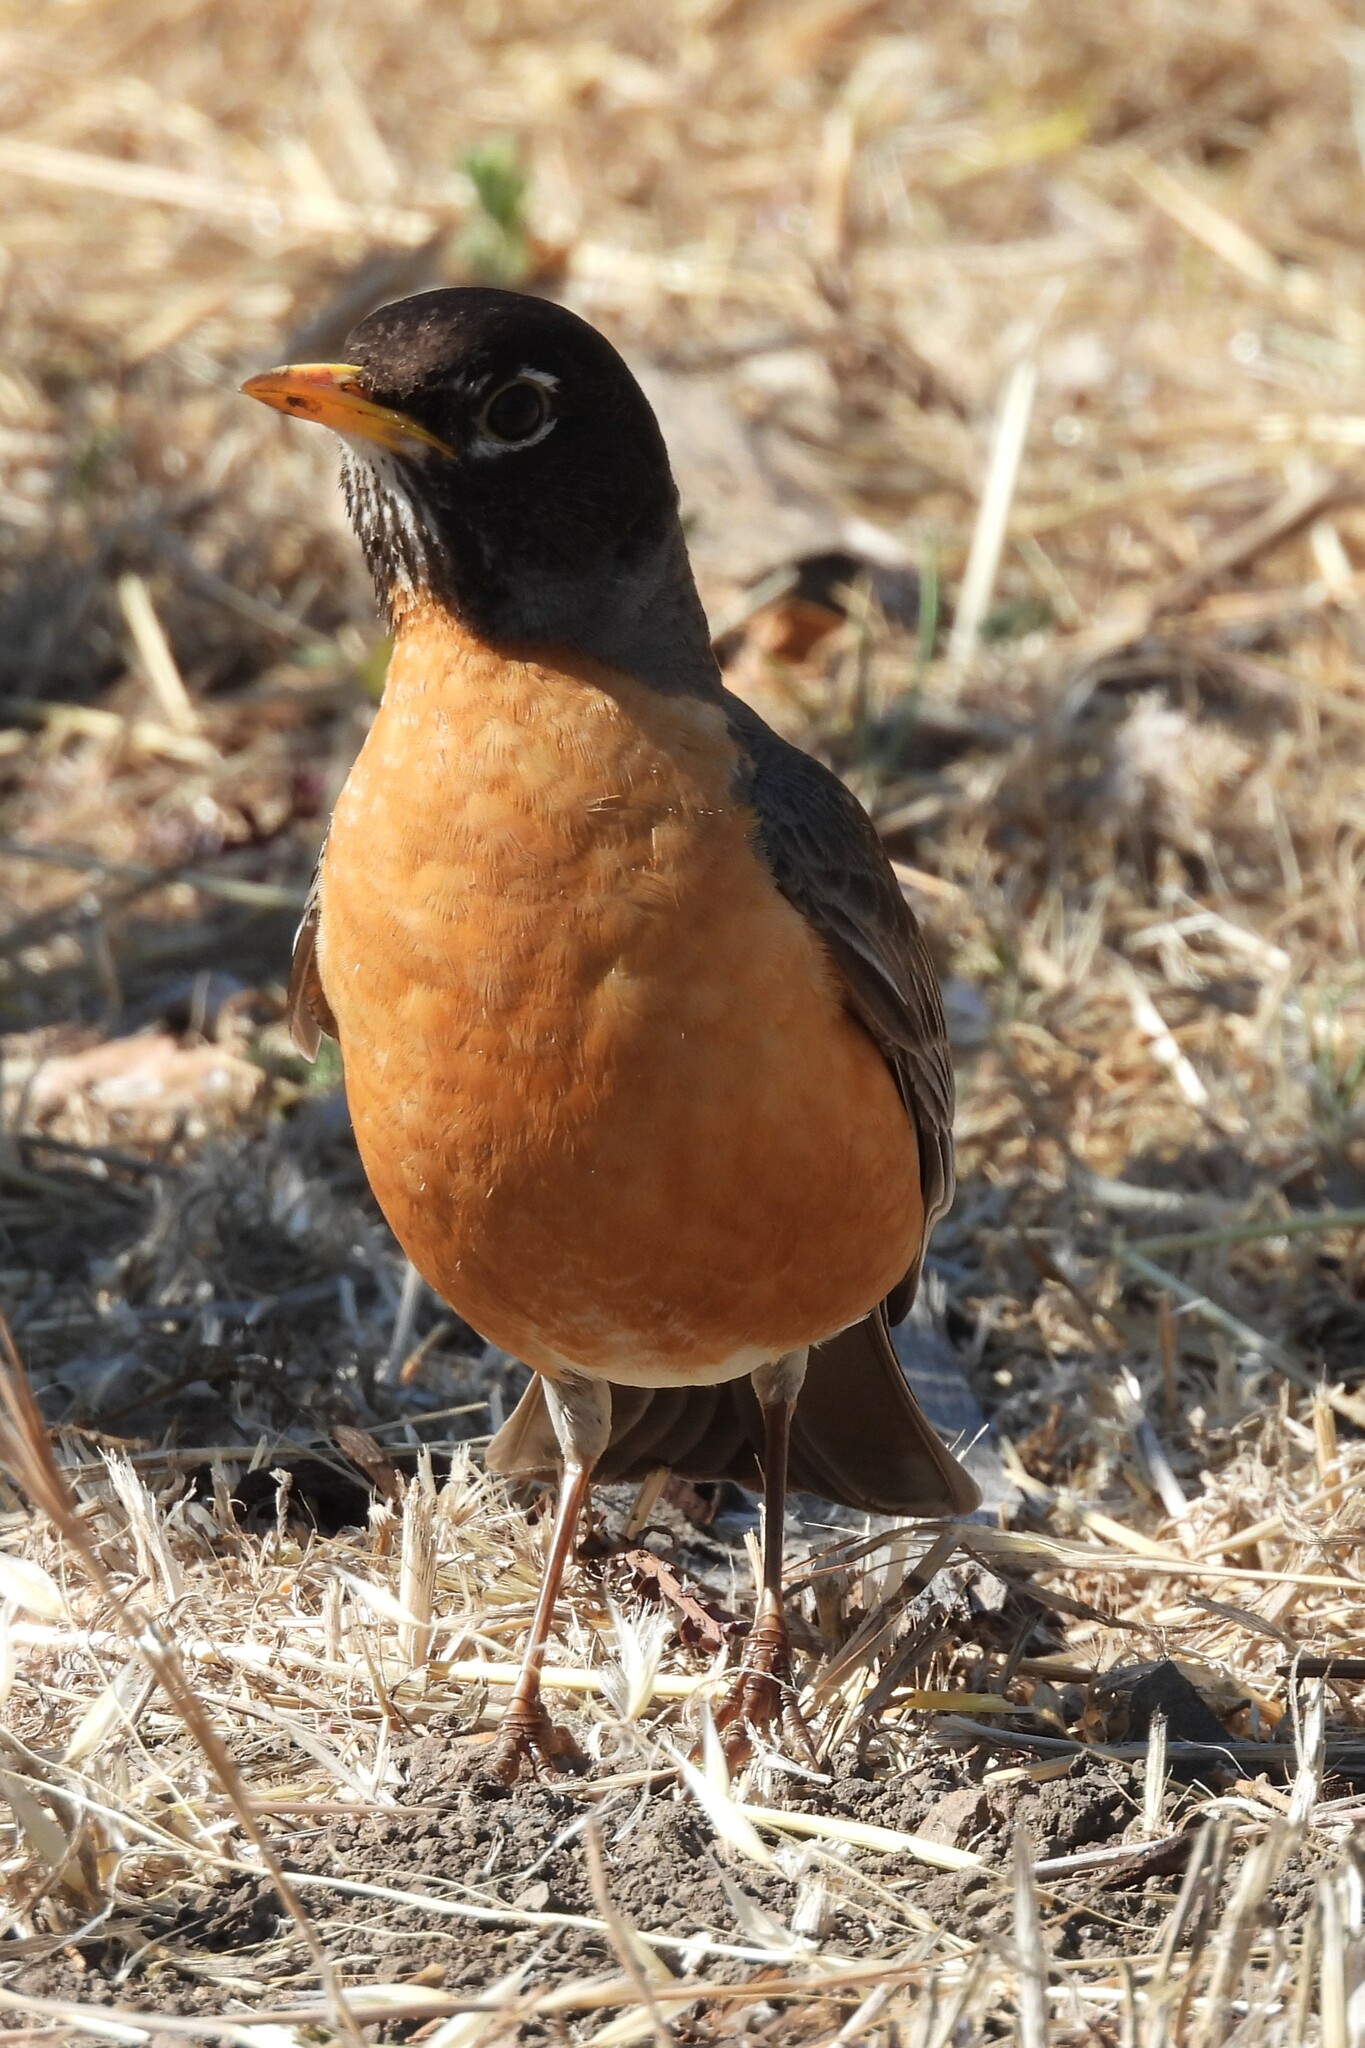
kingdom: Animalia
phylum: Chordata
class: Aves
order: Passeriformes
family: Turdidae
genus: Turdus
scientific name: Turdus migratorius
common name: American robin
